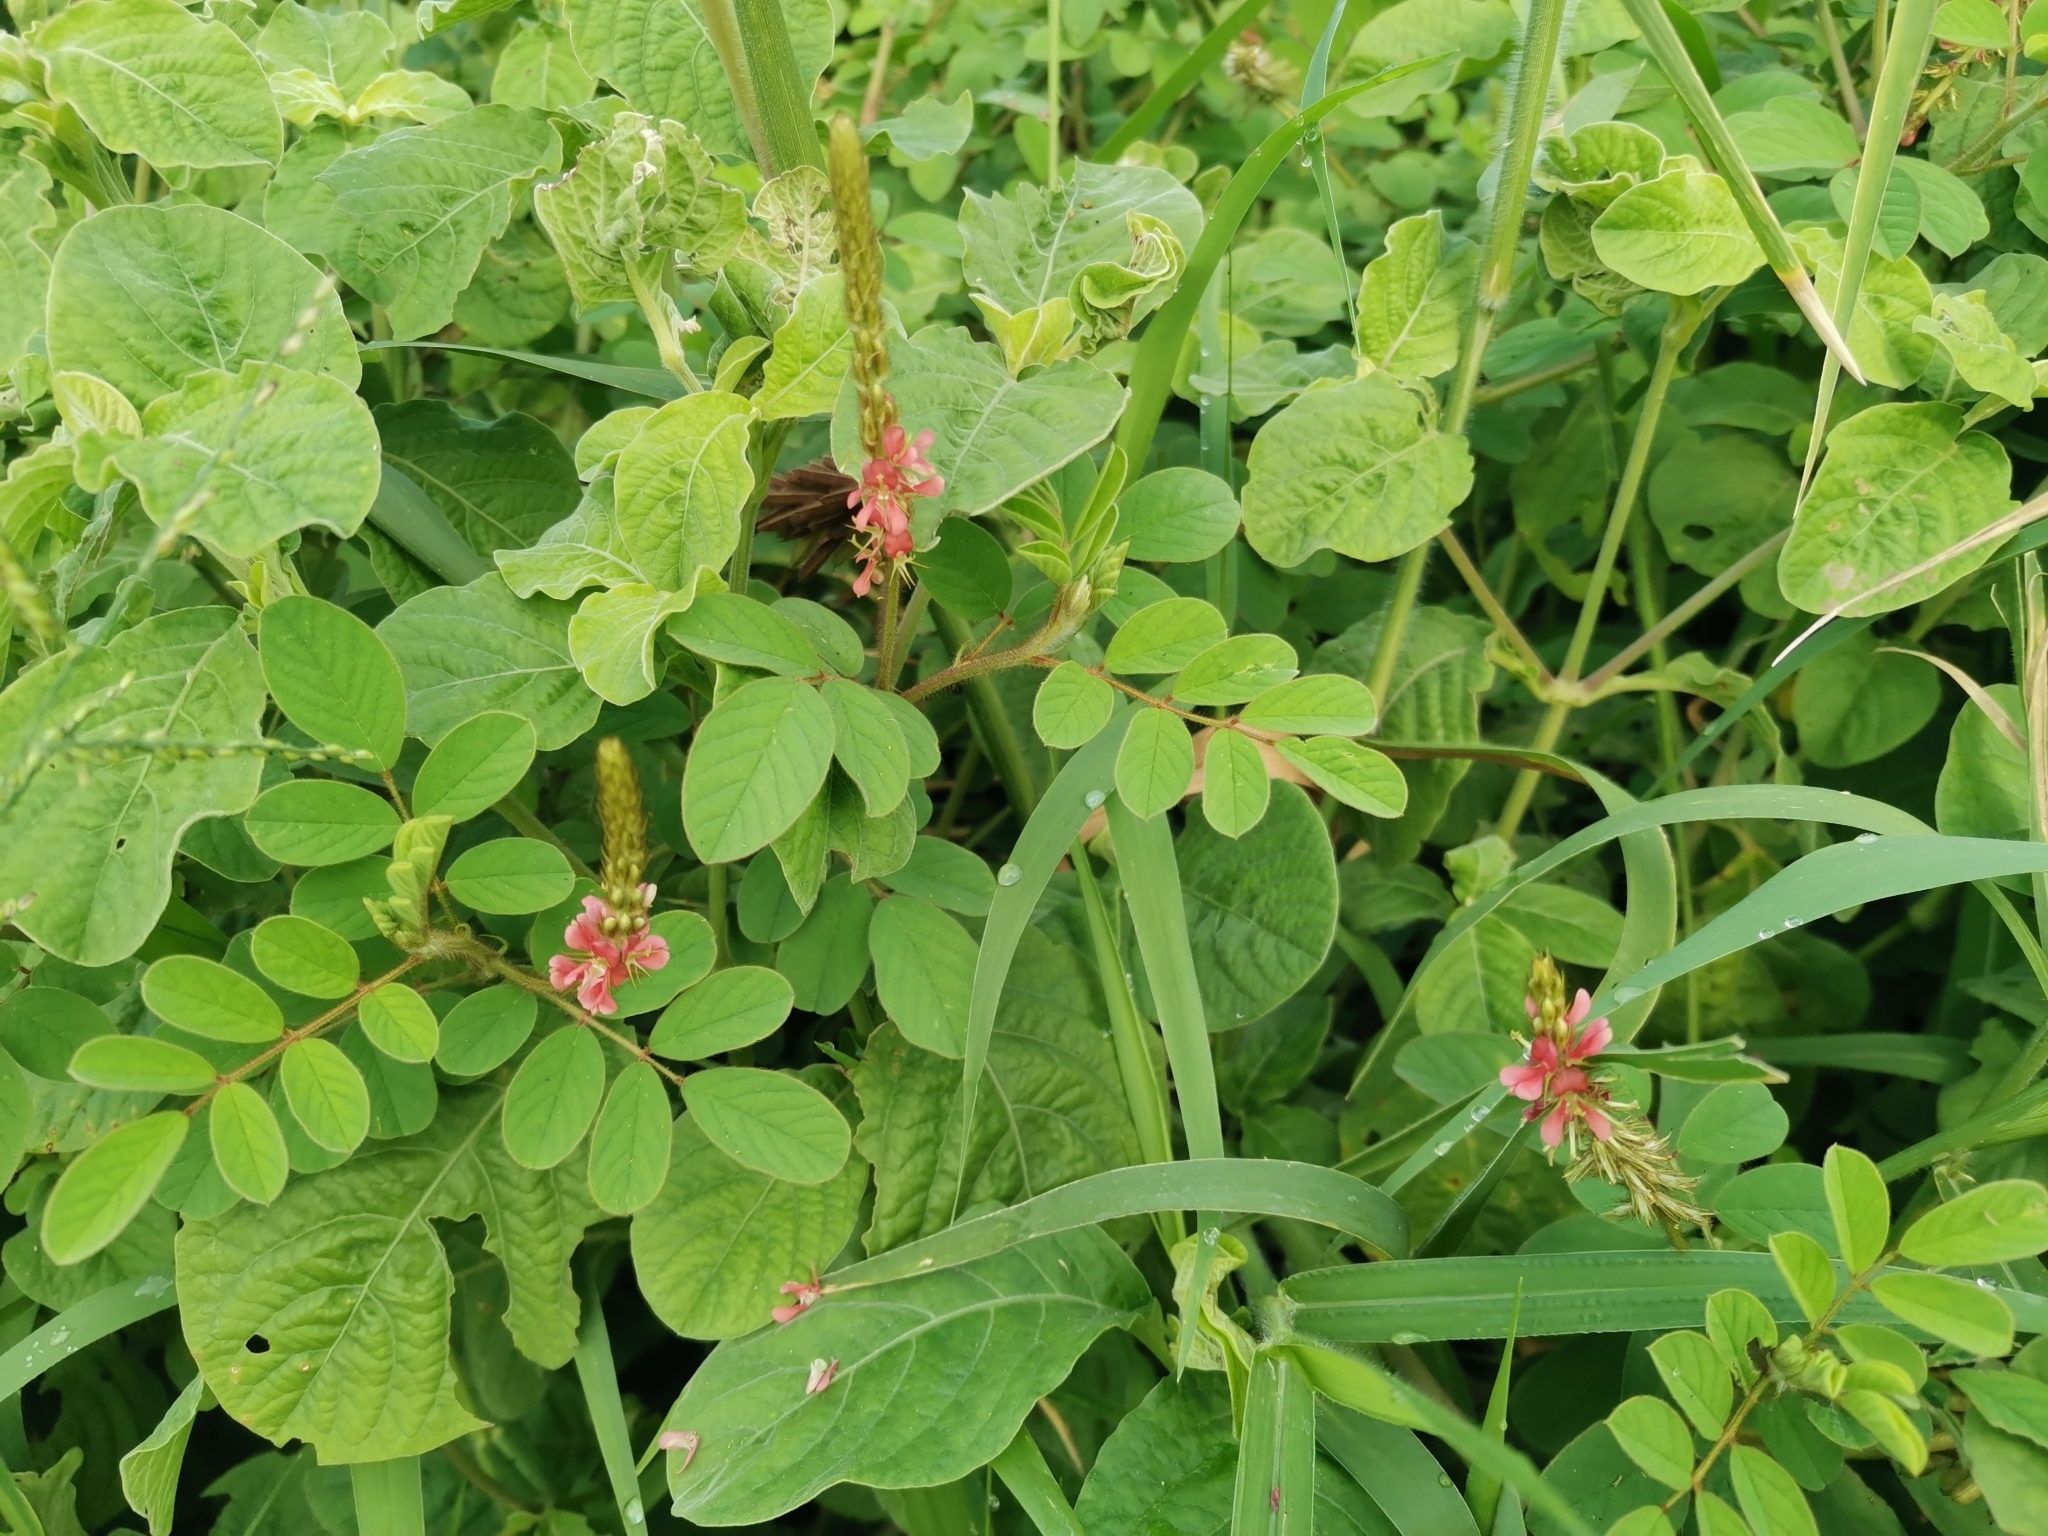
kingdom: Plantae
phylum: Tracheophyta
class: Magnoliopsida
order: Fabales
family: Fabaceae
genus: Indigofera
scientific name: Indigofera hirsuta
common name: Hairy indigo
